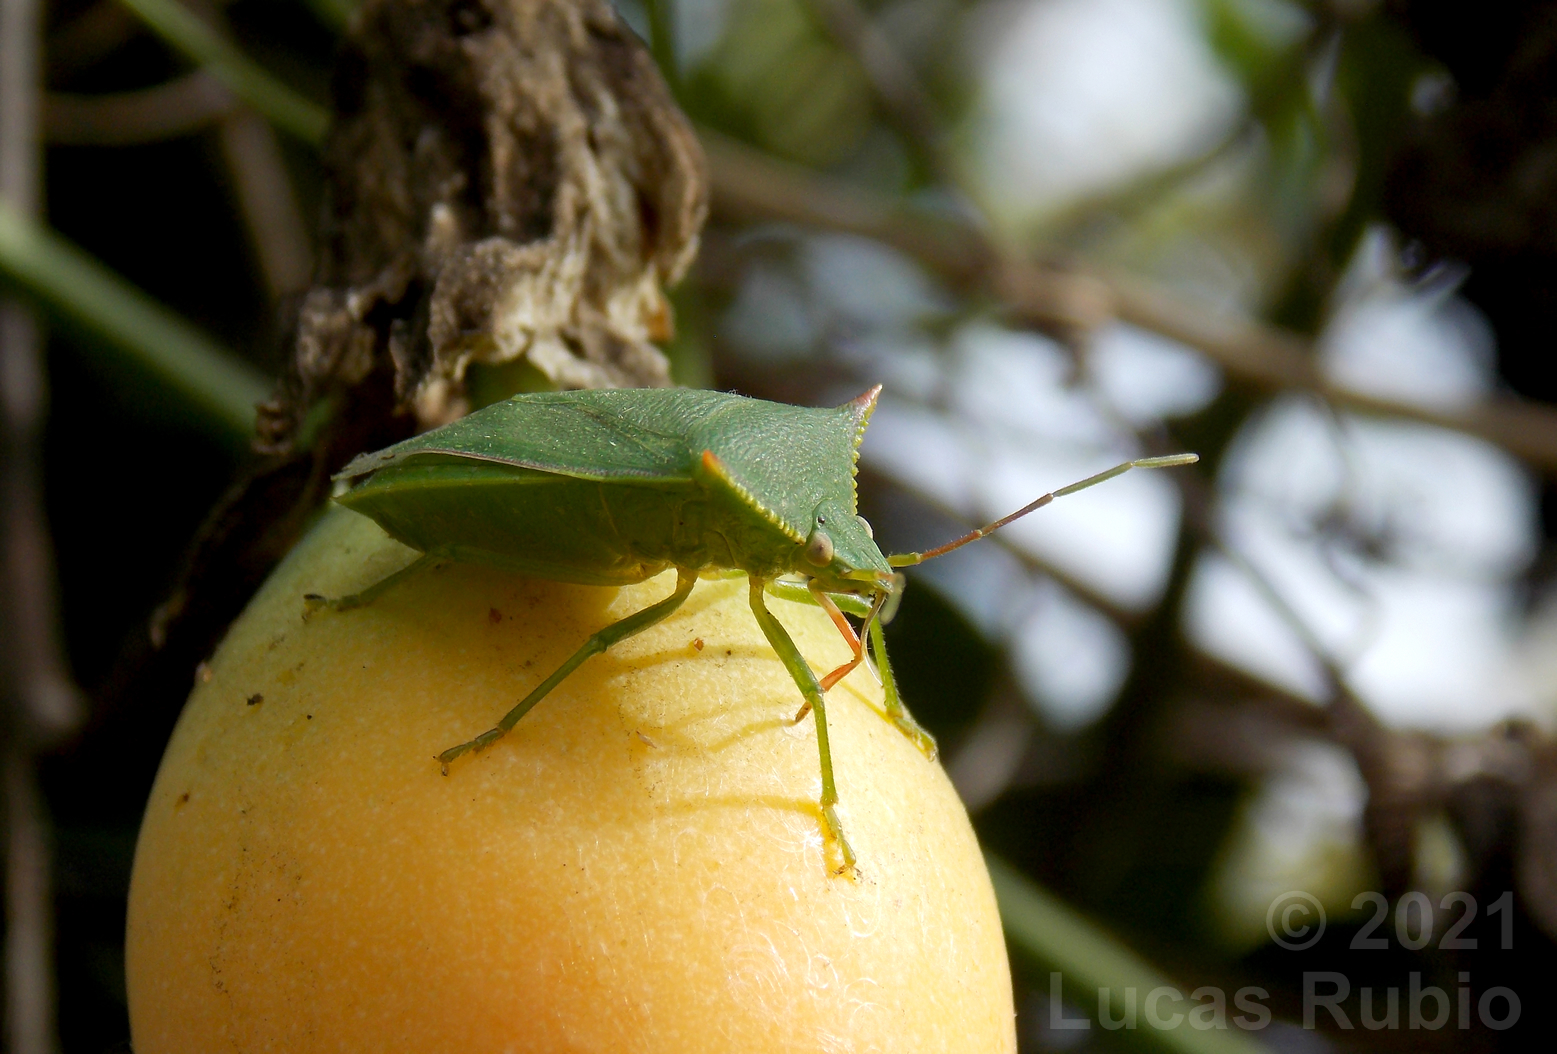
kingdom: Animalia
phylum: Arthropoda
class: Insecta
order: Hemiptera
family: Pentatomidae
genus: Loxa
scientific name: Loxa deducta
